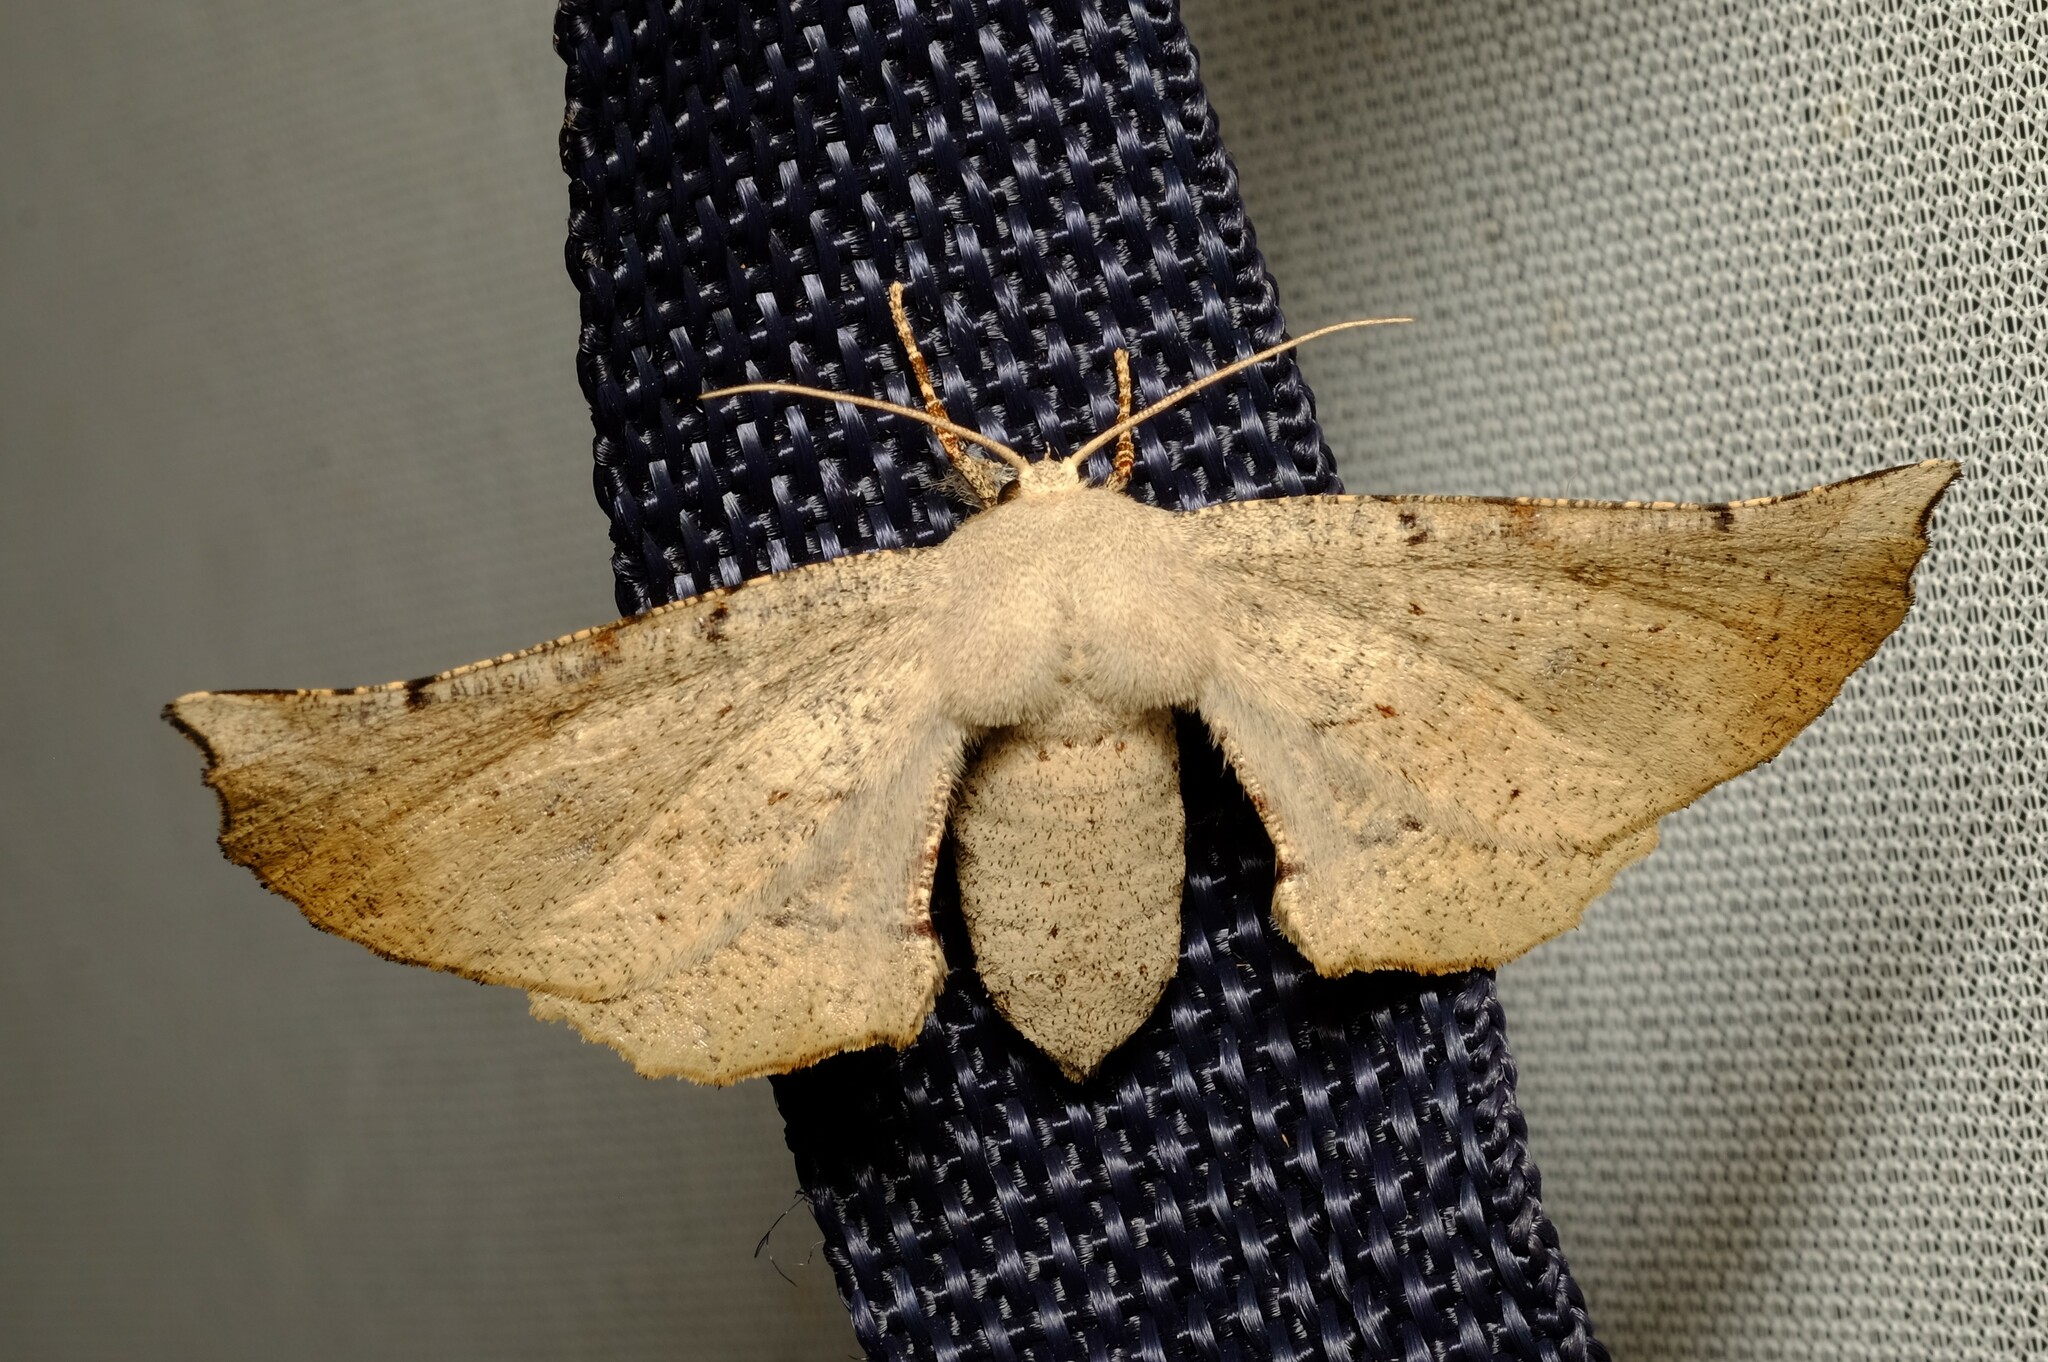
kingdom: Animalia
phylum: Arthropoda
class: Insecta
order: Lepidoptera
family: Geometridae
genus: Circopetes
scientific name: Circopetes obtusata
